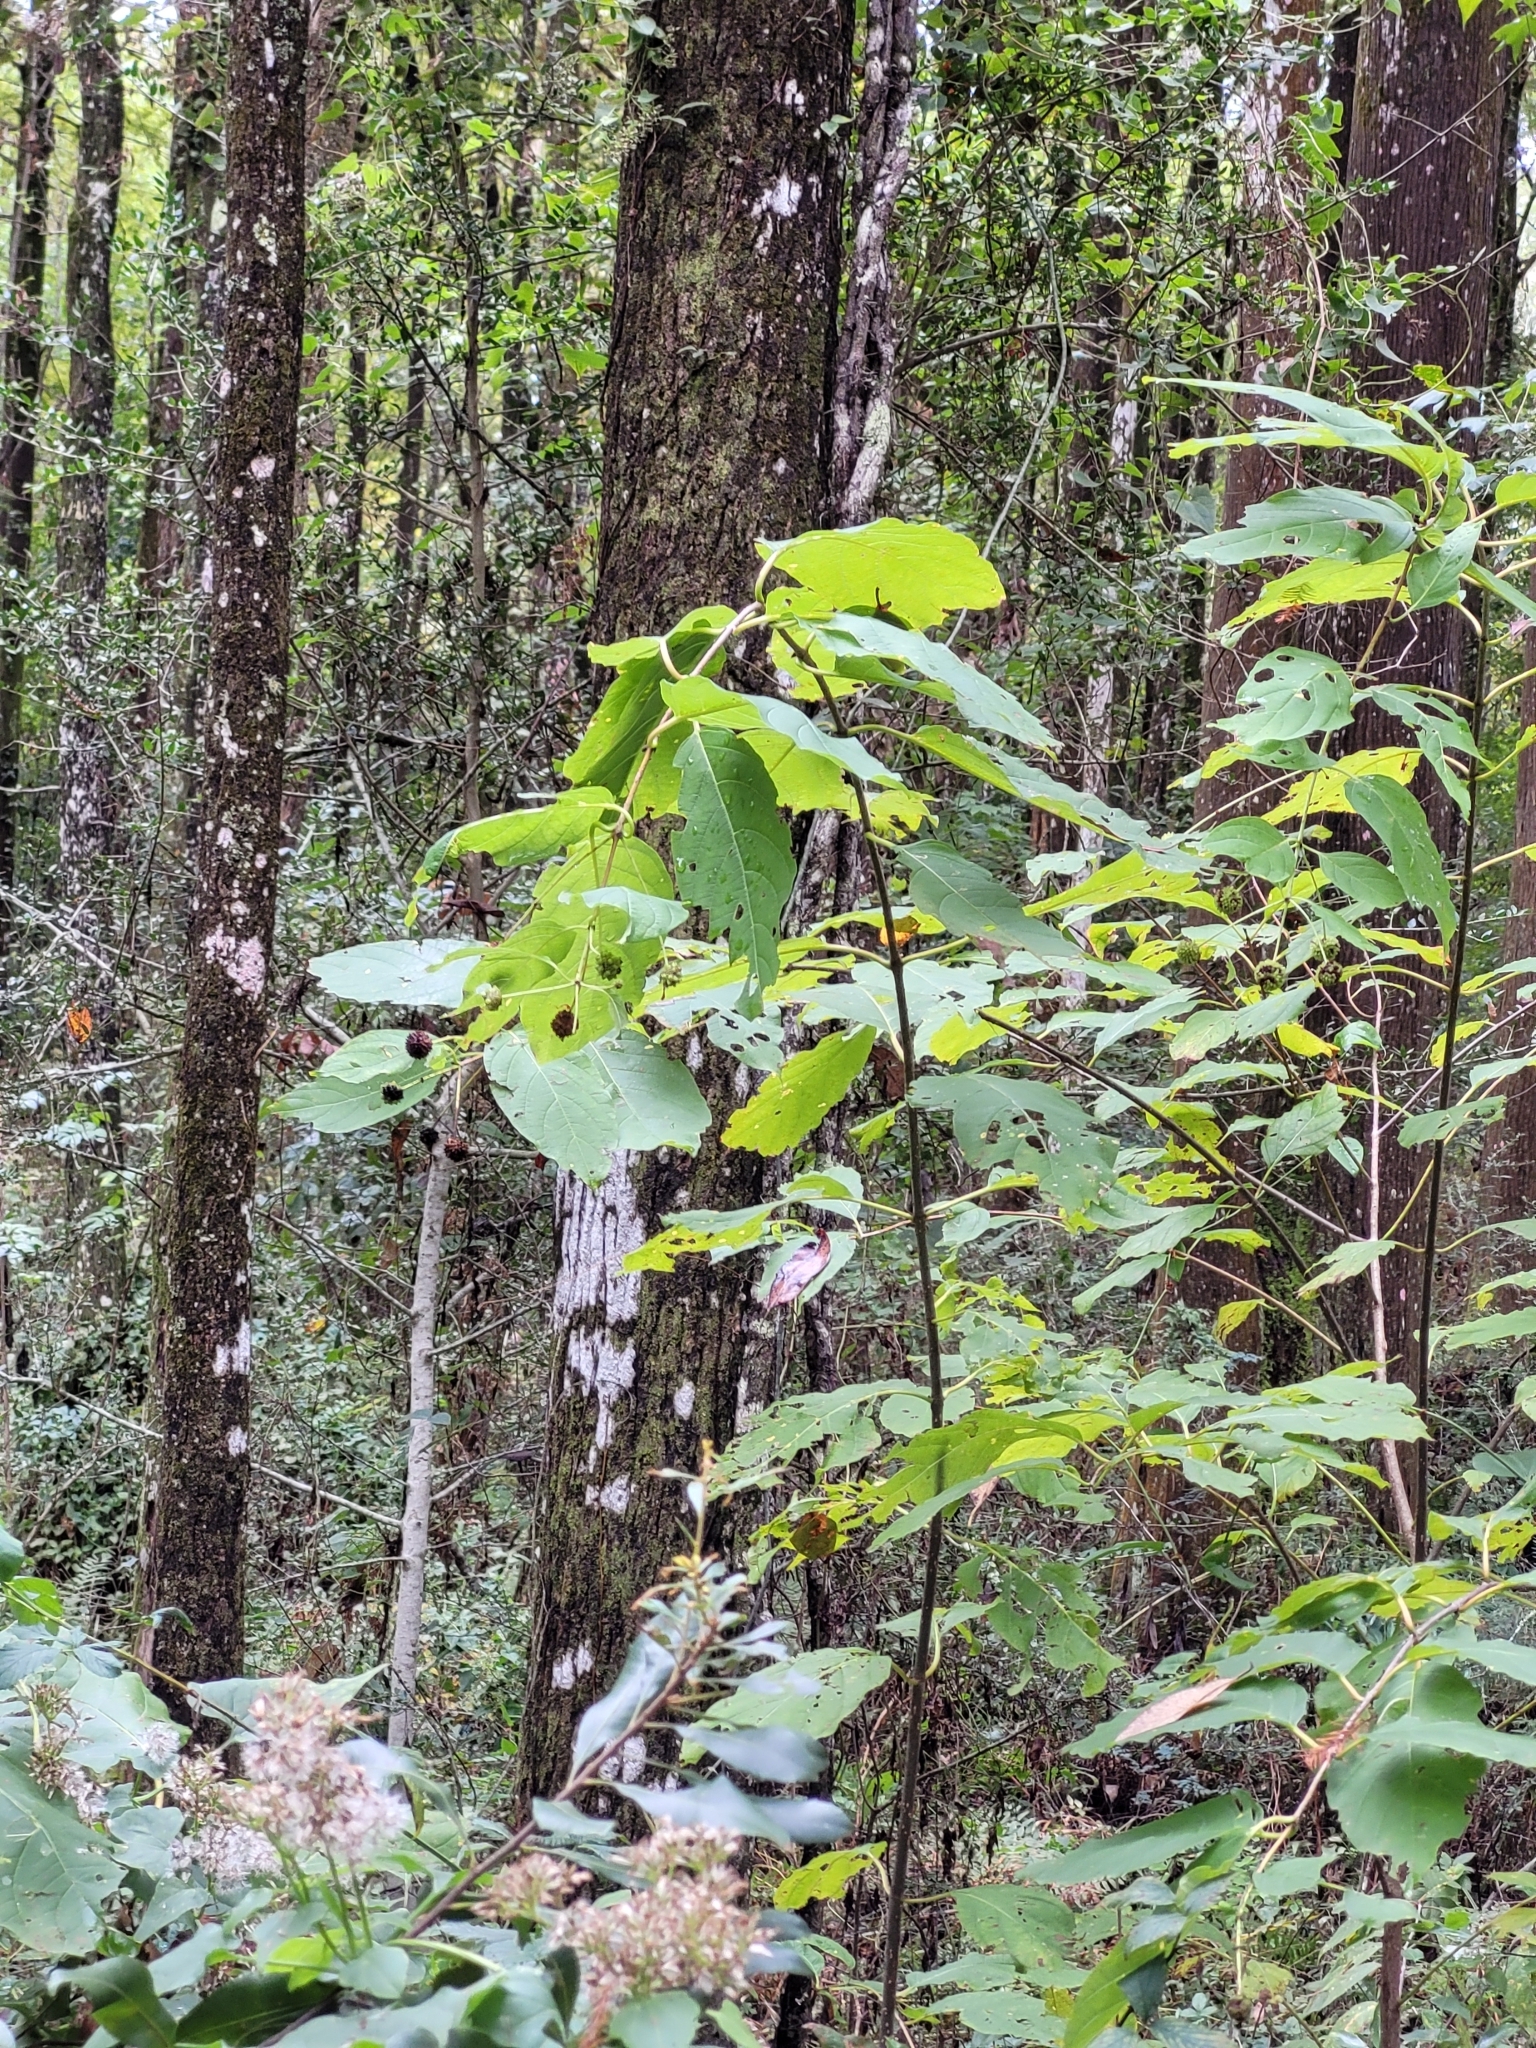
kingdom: Plantae
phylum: Tracheophyta
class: Magnoliopsida
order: Gentianales
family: Rubiaceae
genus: Cephalanthus
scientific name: Cephalanthus occidentalis
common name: Button-willow
